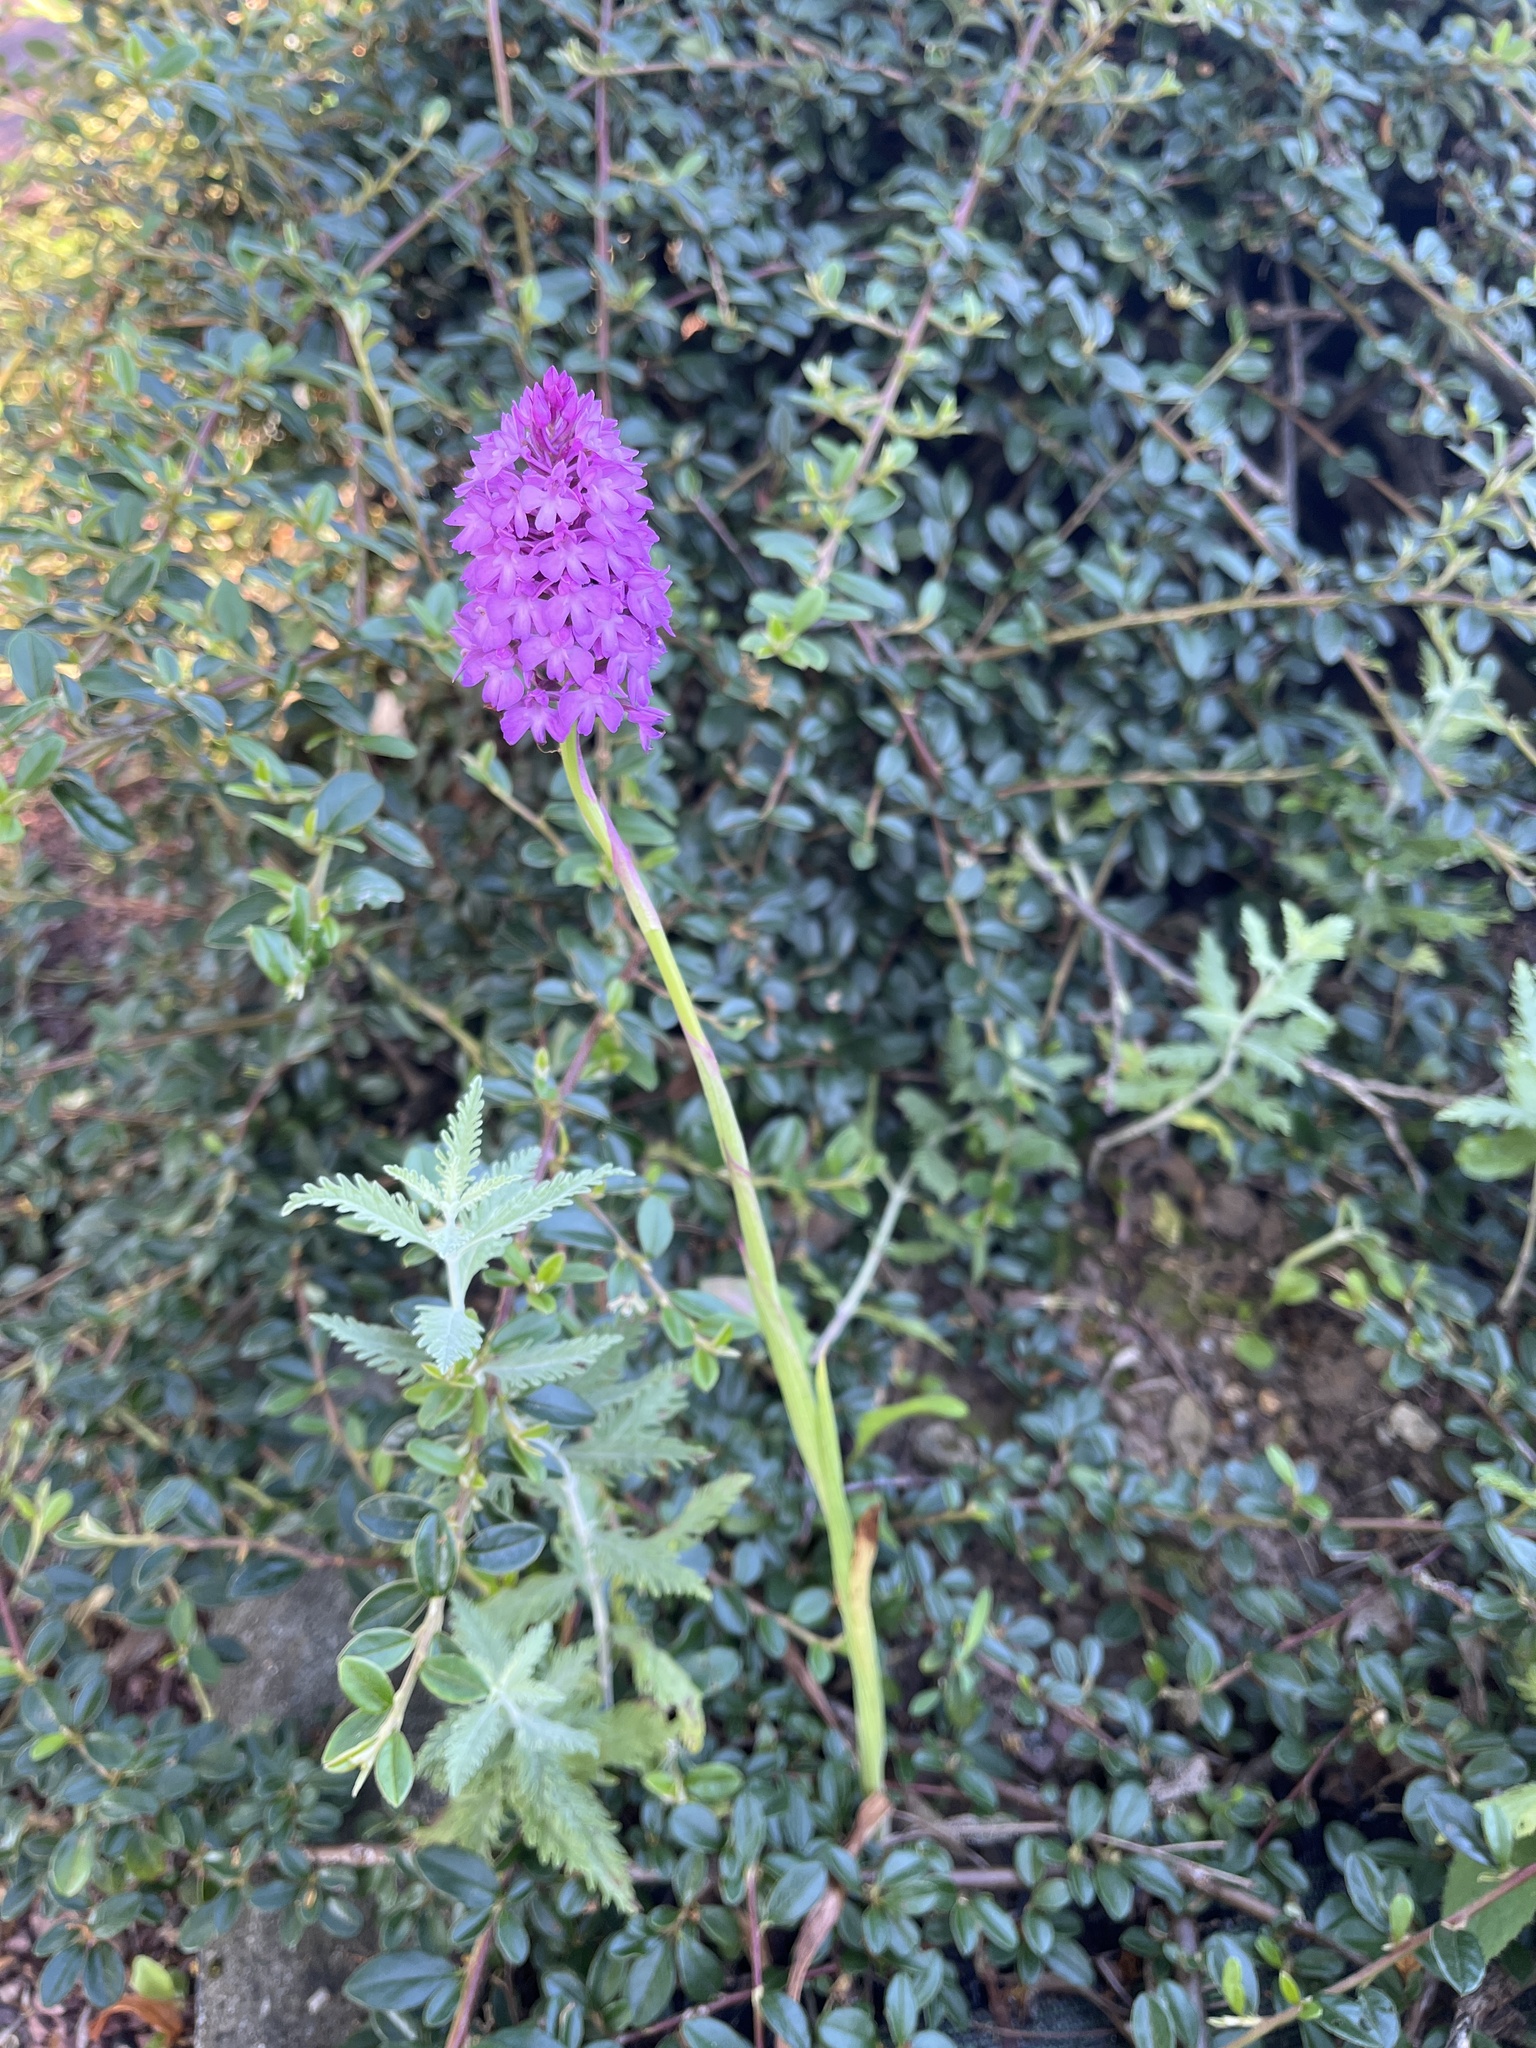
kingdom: Plantae
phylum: Tracheophyta
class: Liliopsida
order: Asparagales
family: Orchidaceae
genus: Anacamptis
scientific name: Anacamptis pyramidalis
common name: Pyramidal orchid
